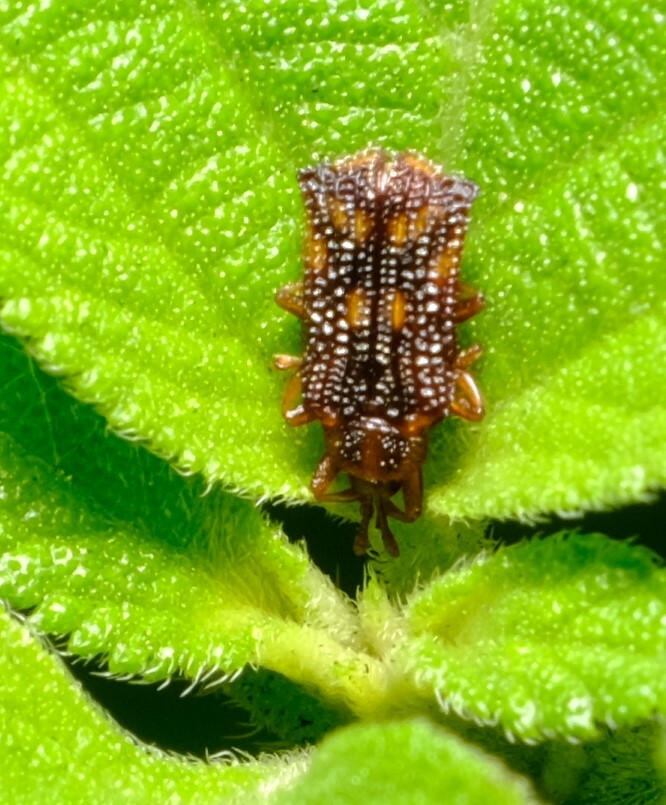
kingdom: Animalia
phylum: Arthropoda
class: Insecta
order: Coleoptera
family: Chrysomelidae
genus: Uroplata
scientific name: Uroplata girardi
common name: Lantana leafminer
